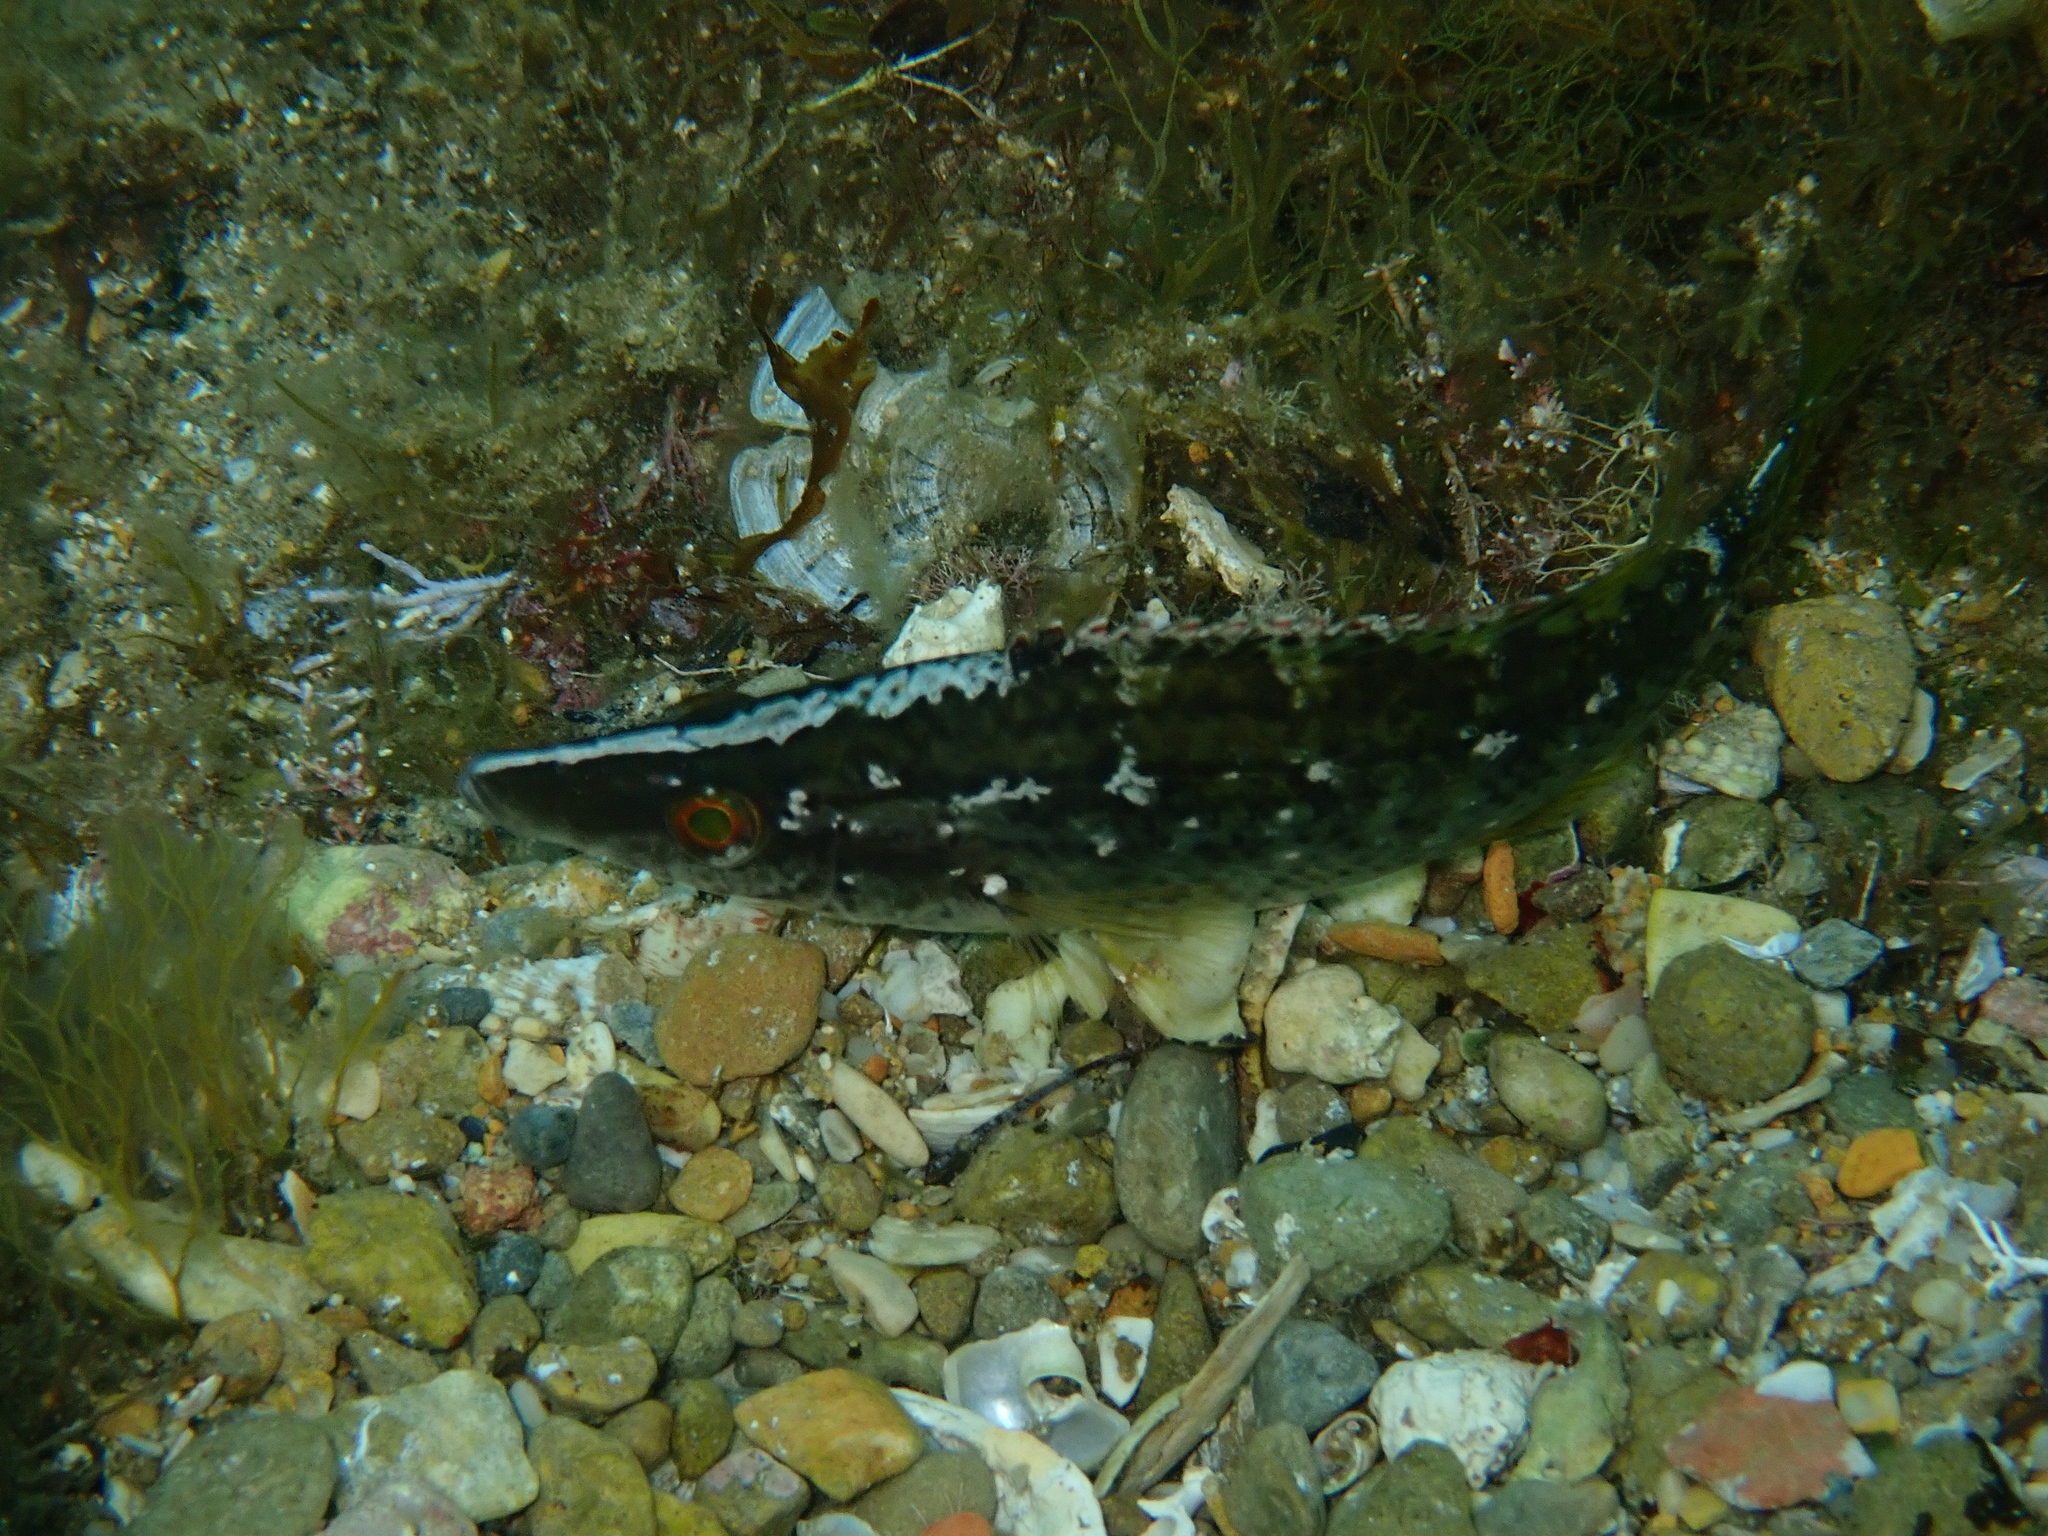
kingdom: Animalia
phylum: Chordata
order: Perciformes
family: Labridae
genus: Symphodus
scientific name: Symphodus rostratus
